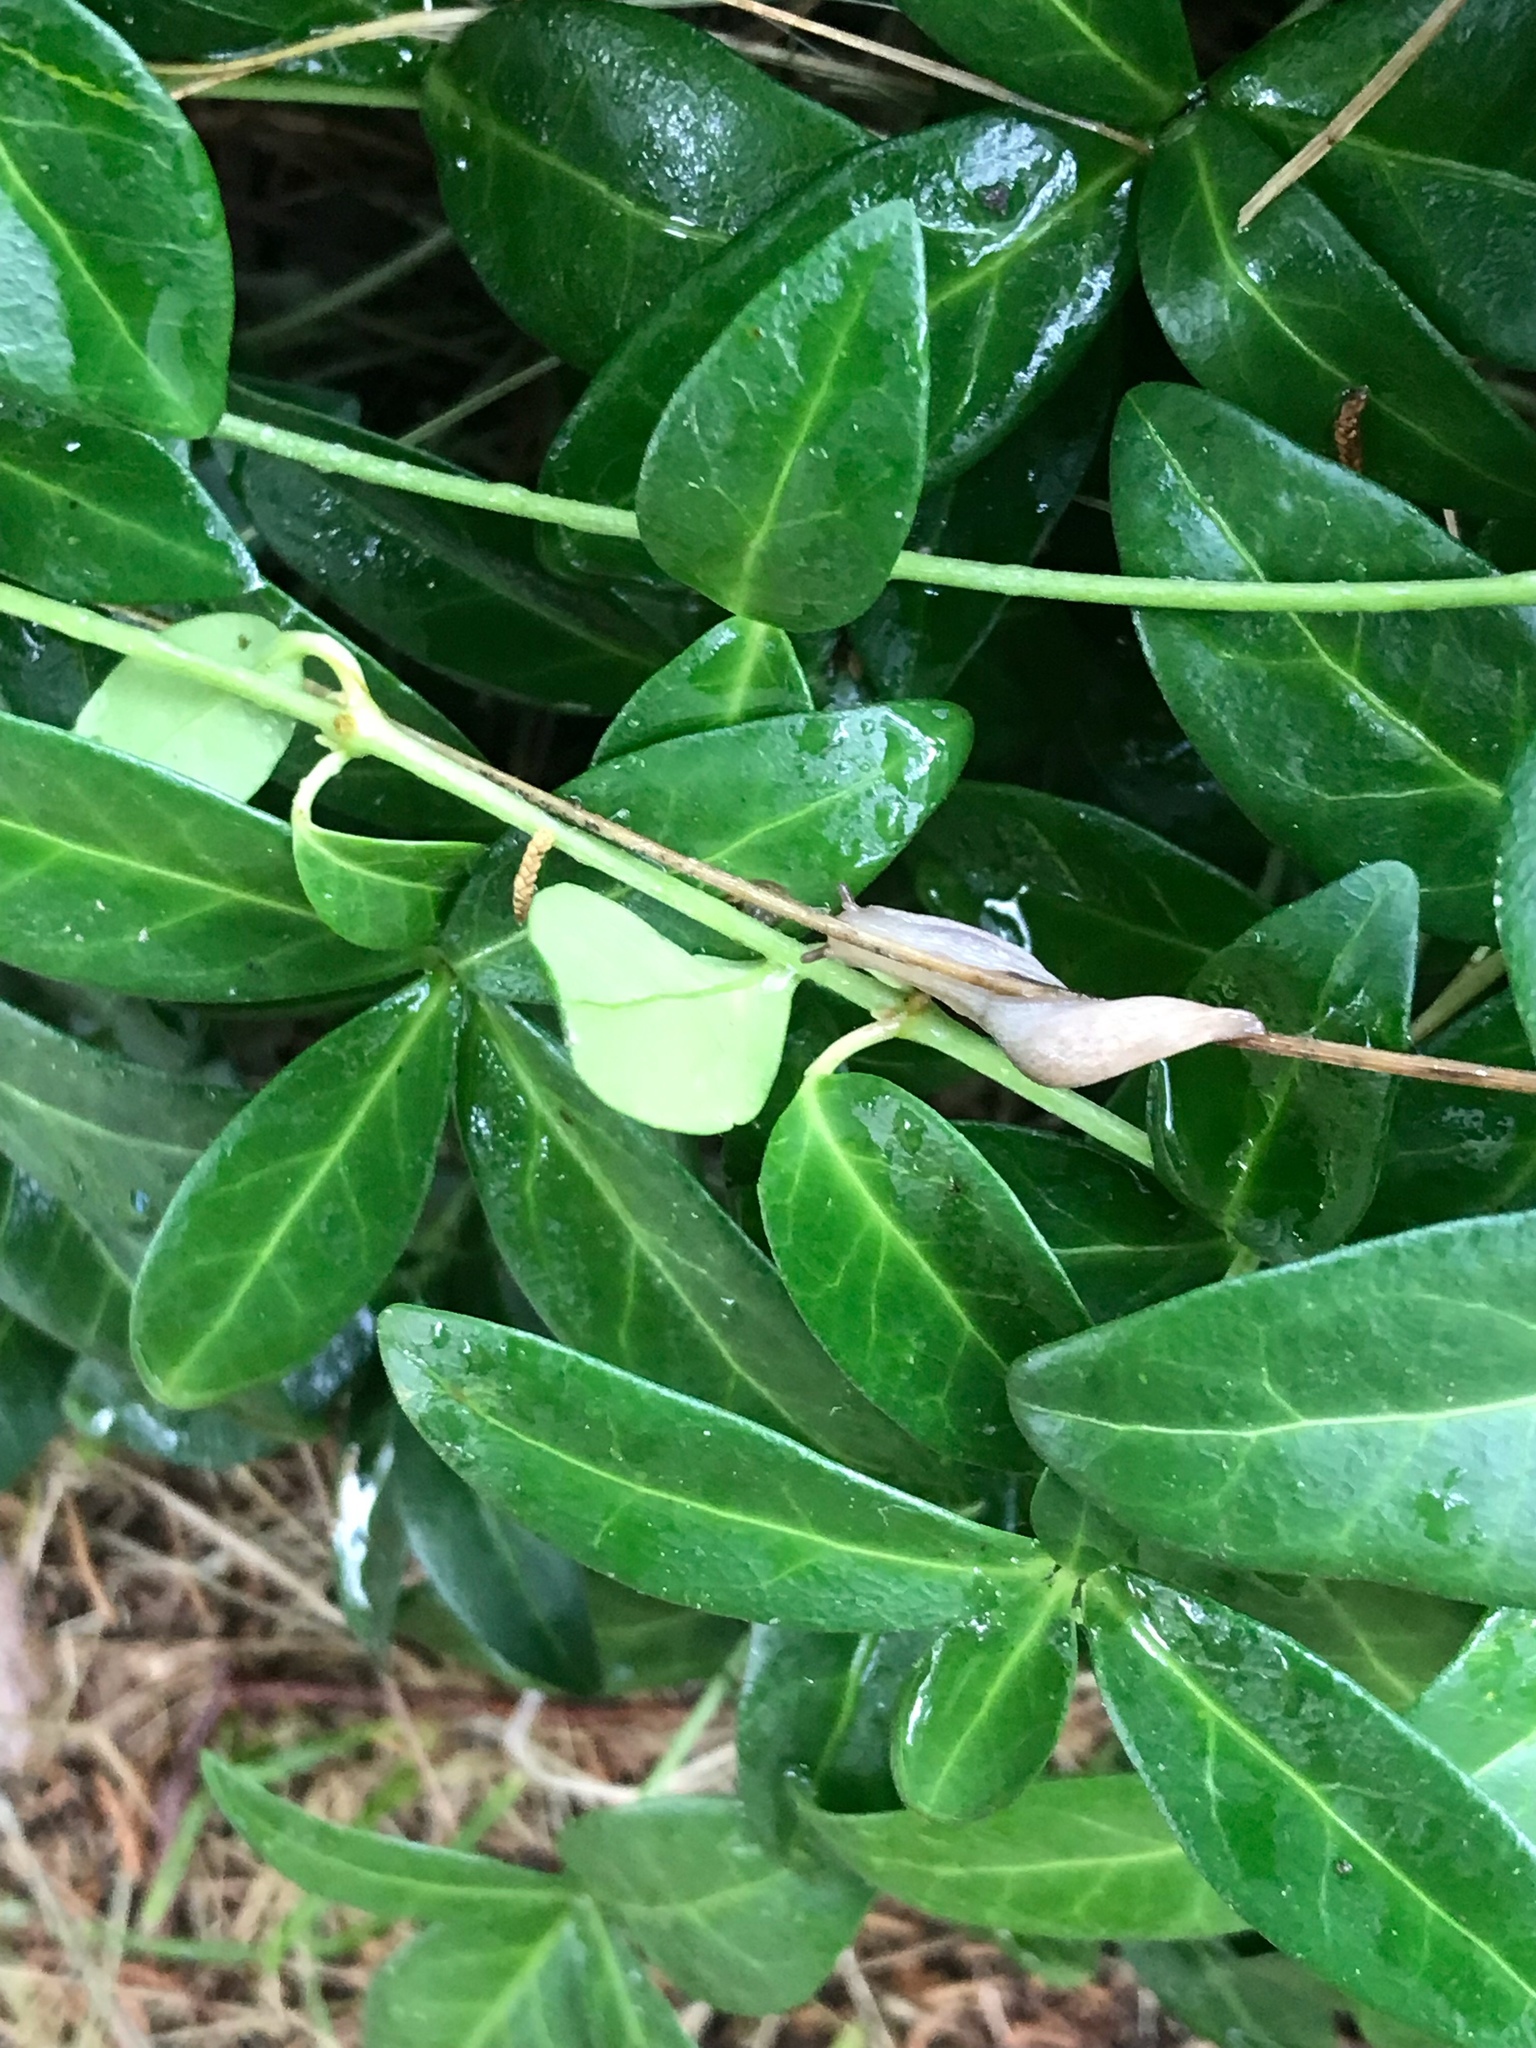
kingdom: Plantae
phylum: Tracheophyta
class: Magnoliopsida
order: Gentianales
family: Apocynaceae
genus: Vinca
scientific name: Vinca minor
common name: Lesser periwinkle
